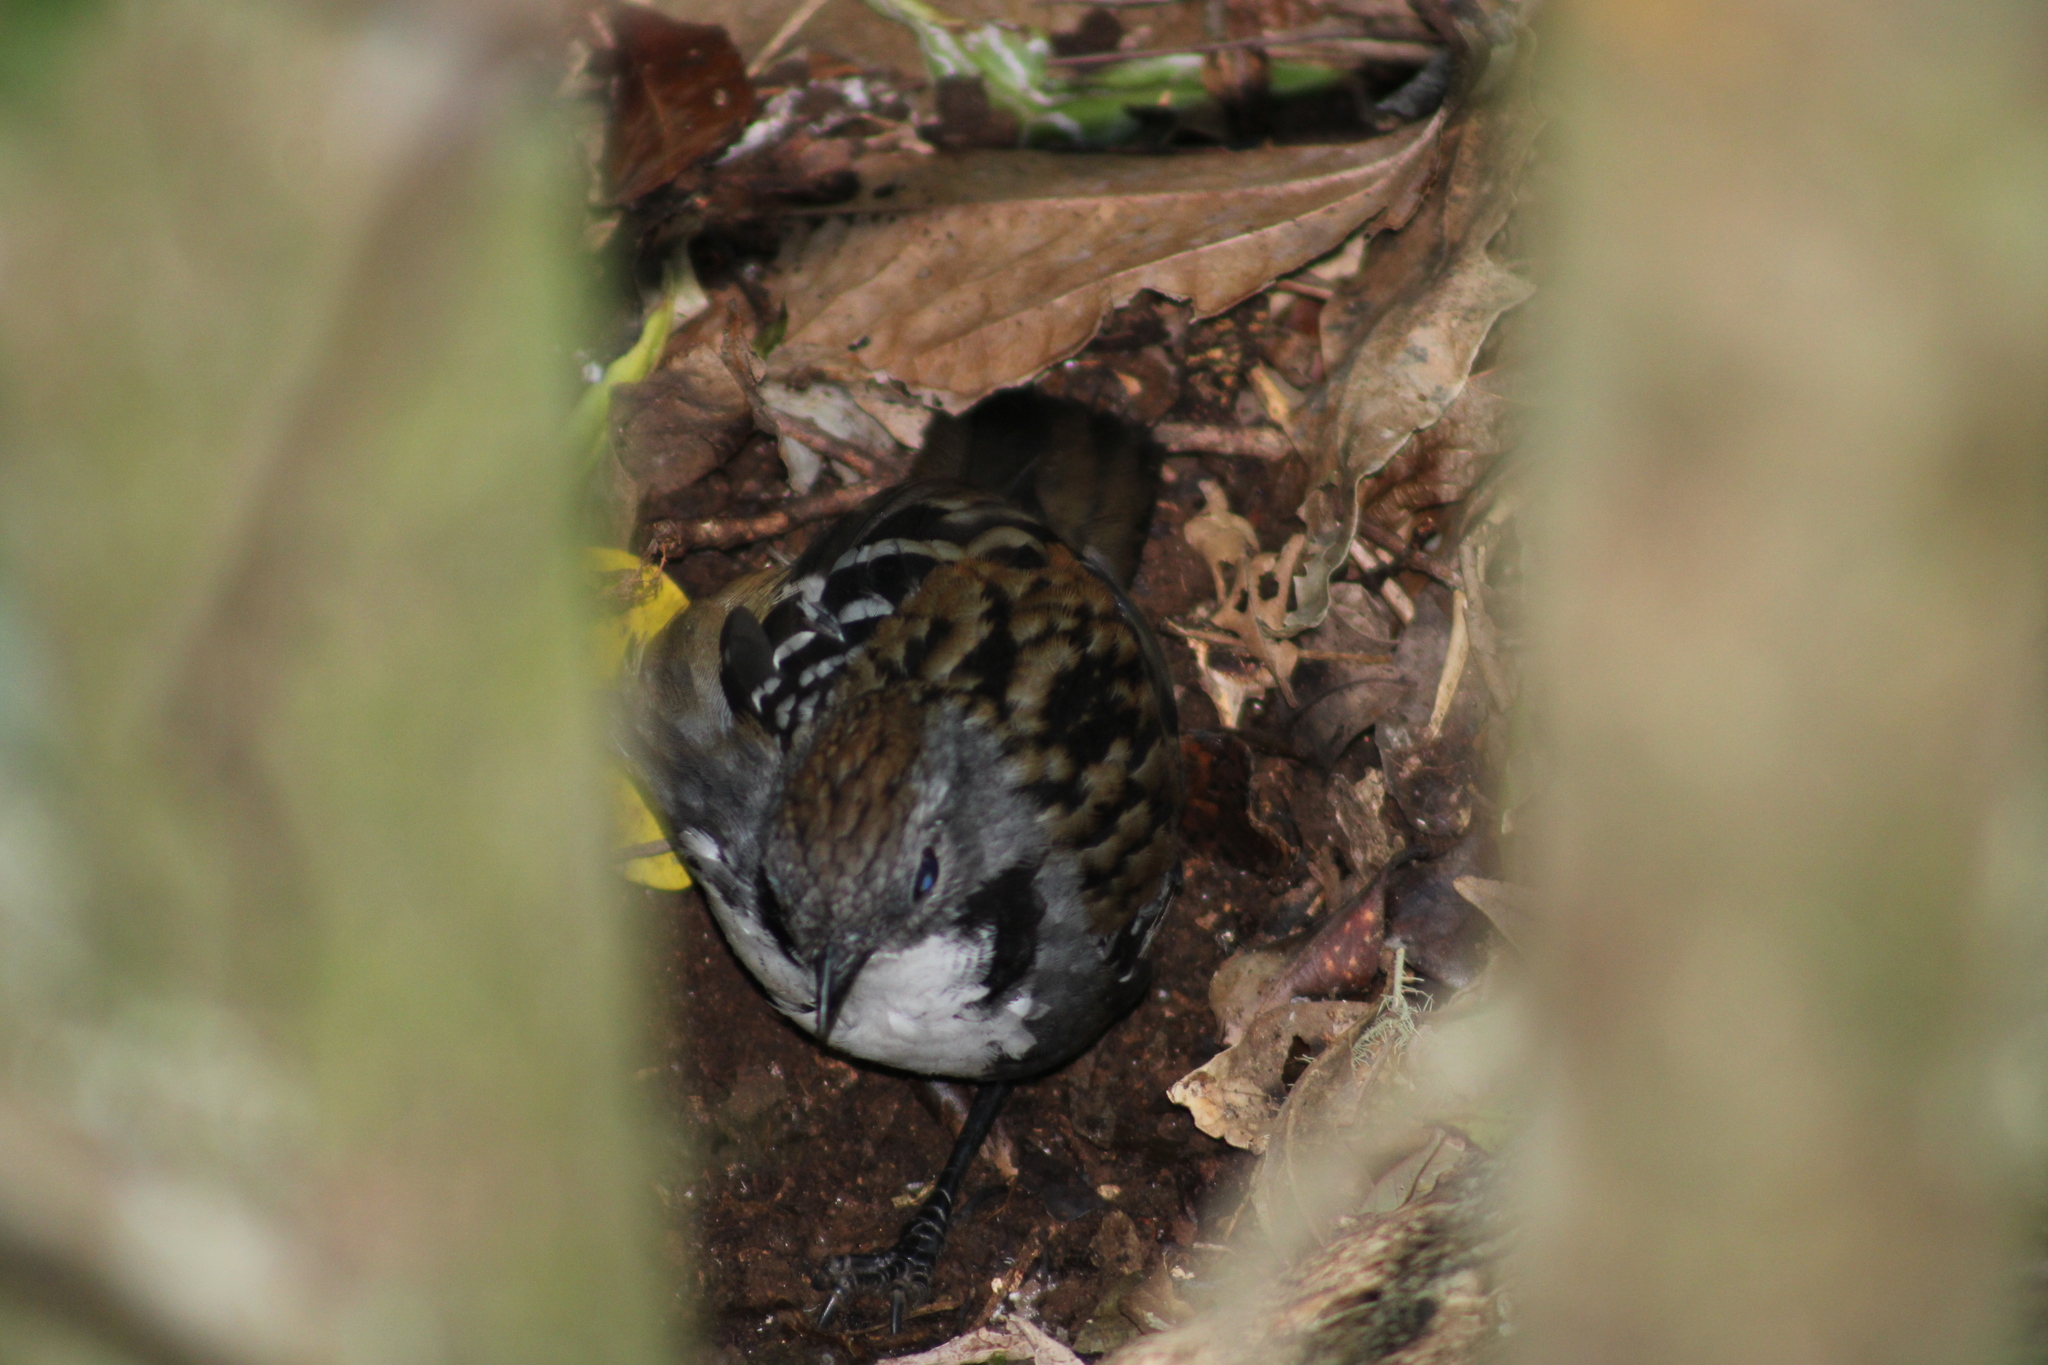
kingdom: Animalia
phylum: Chordata
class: Aves
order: Passeriformes
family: Orthonychidae
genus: Orthonyx
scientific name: Orthonyx temminckii
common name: Australian logrunner
